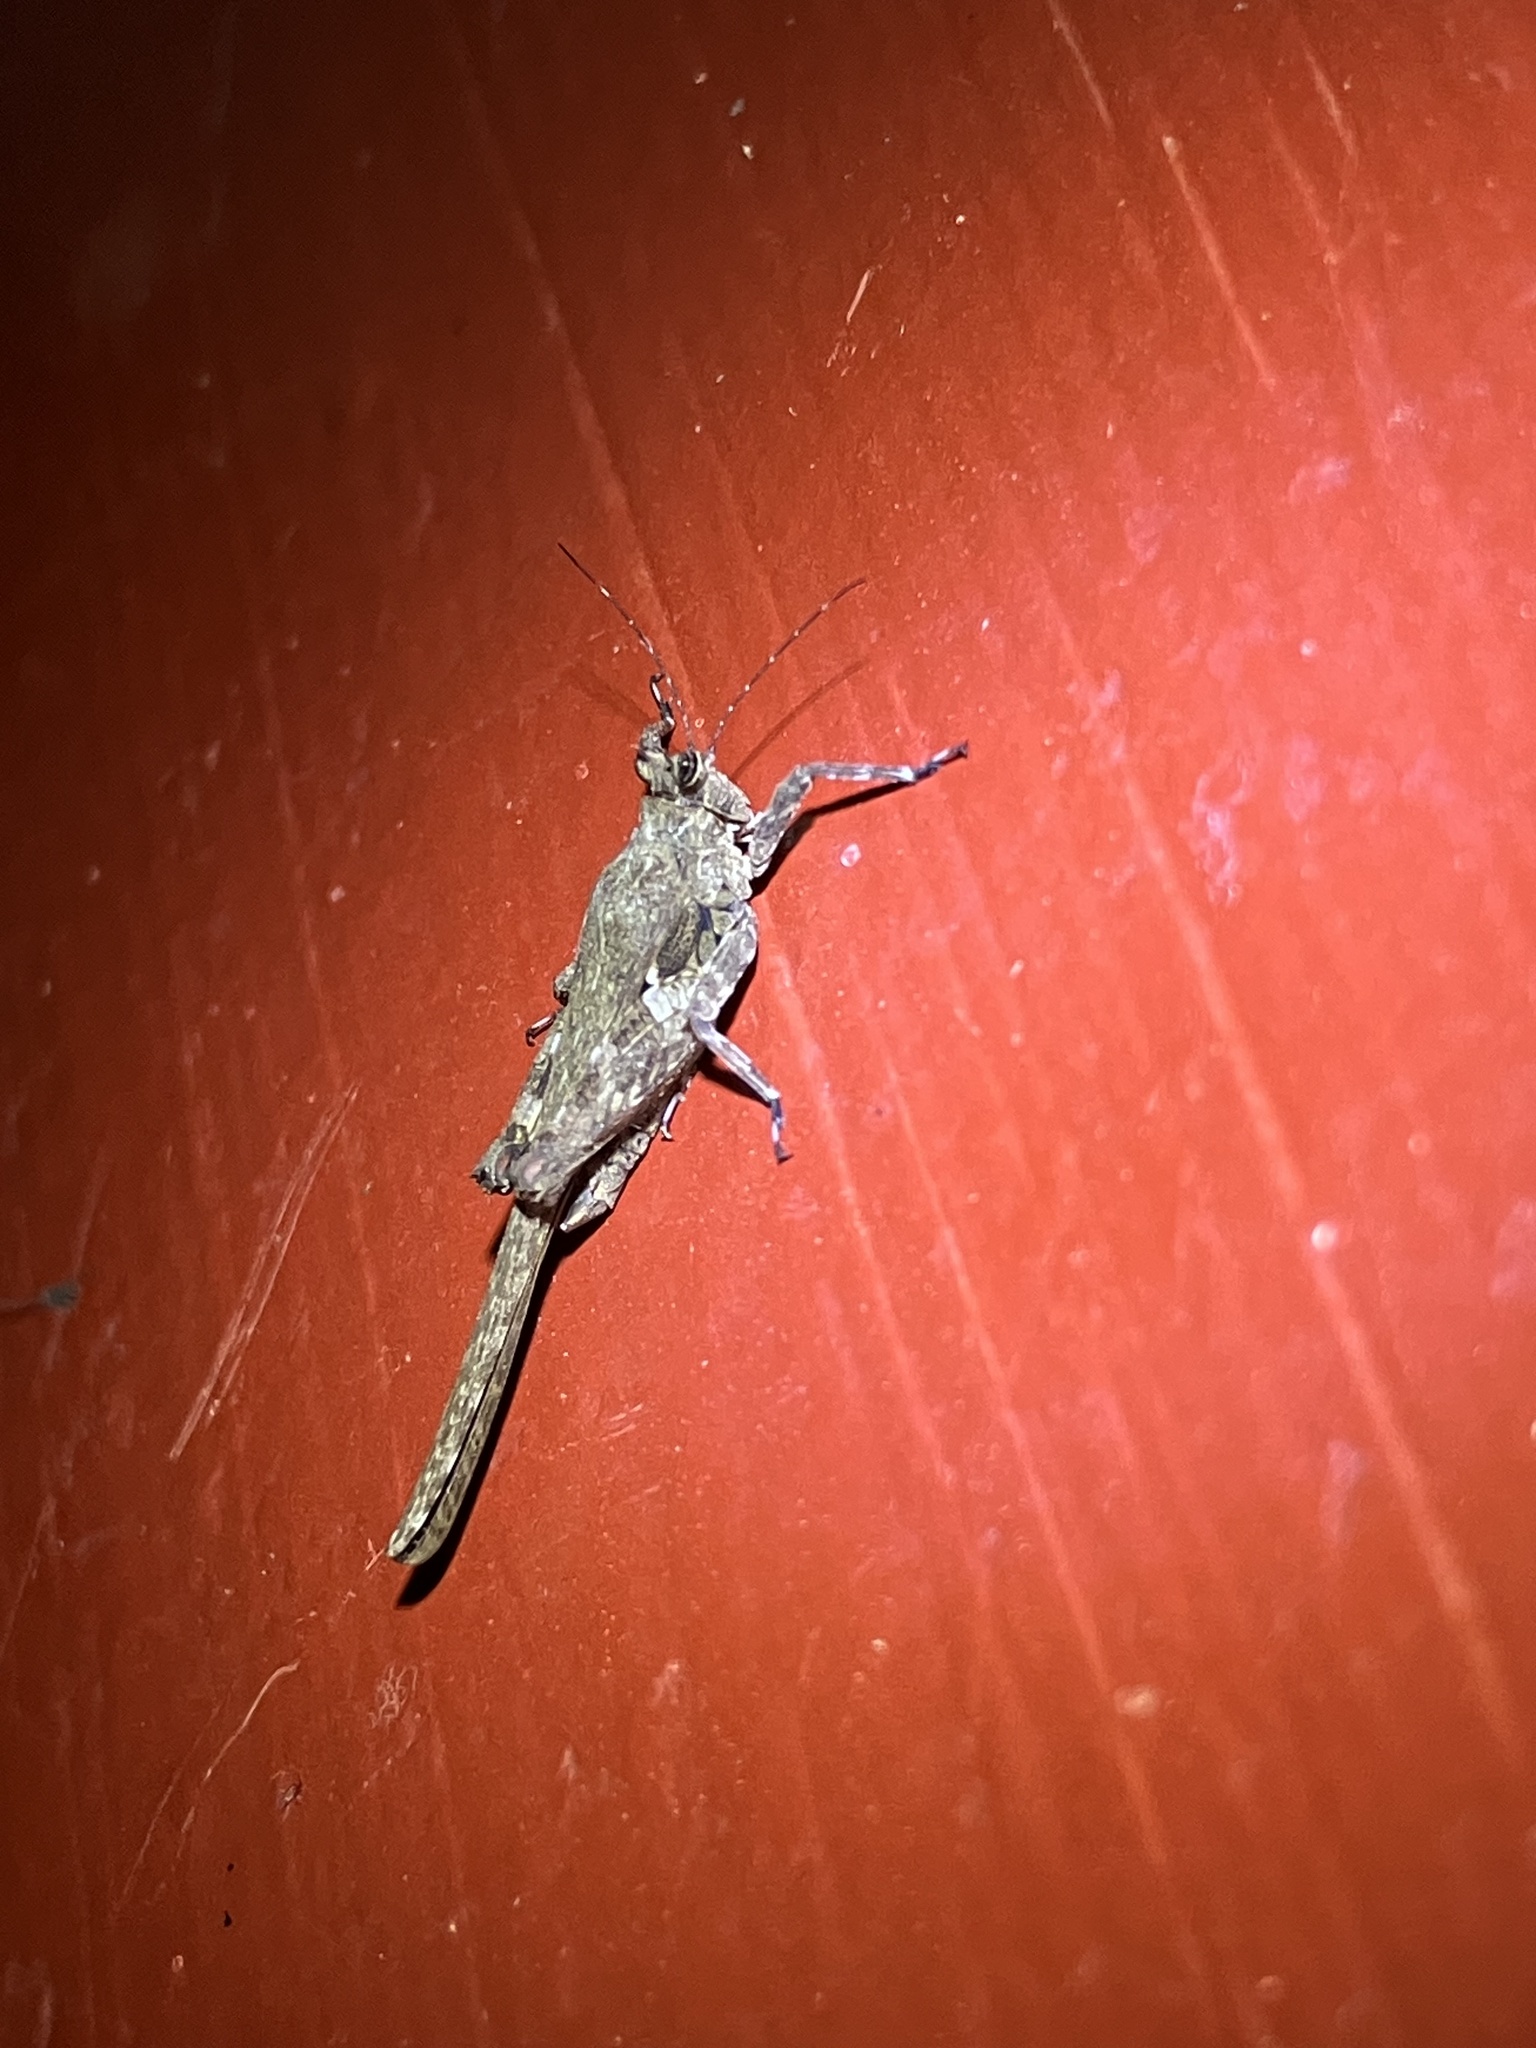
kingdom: Animalia
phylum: Arthropoda
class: Insecta
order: Orthoptera
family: Tetrigidae
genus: Xistrella
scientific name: Xistrella stylata
